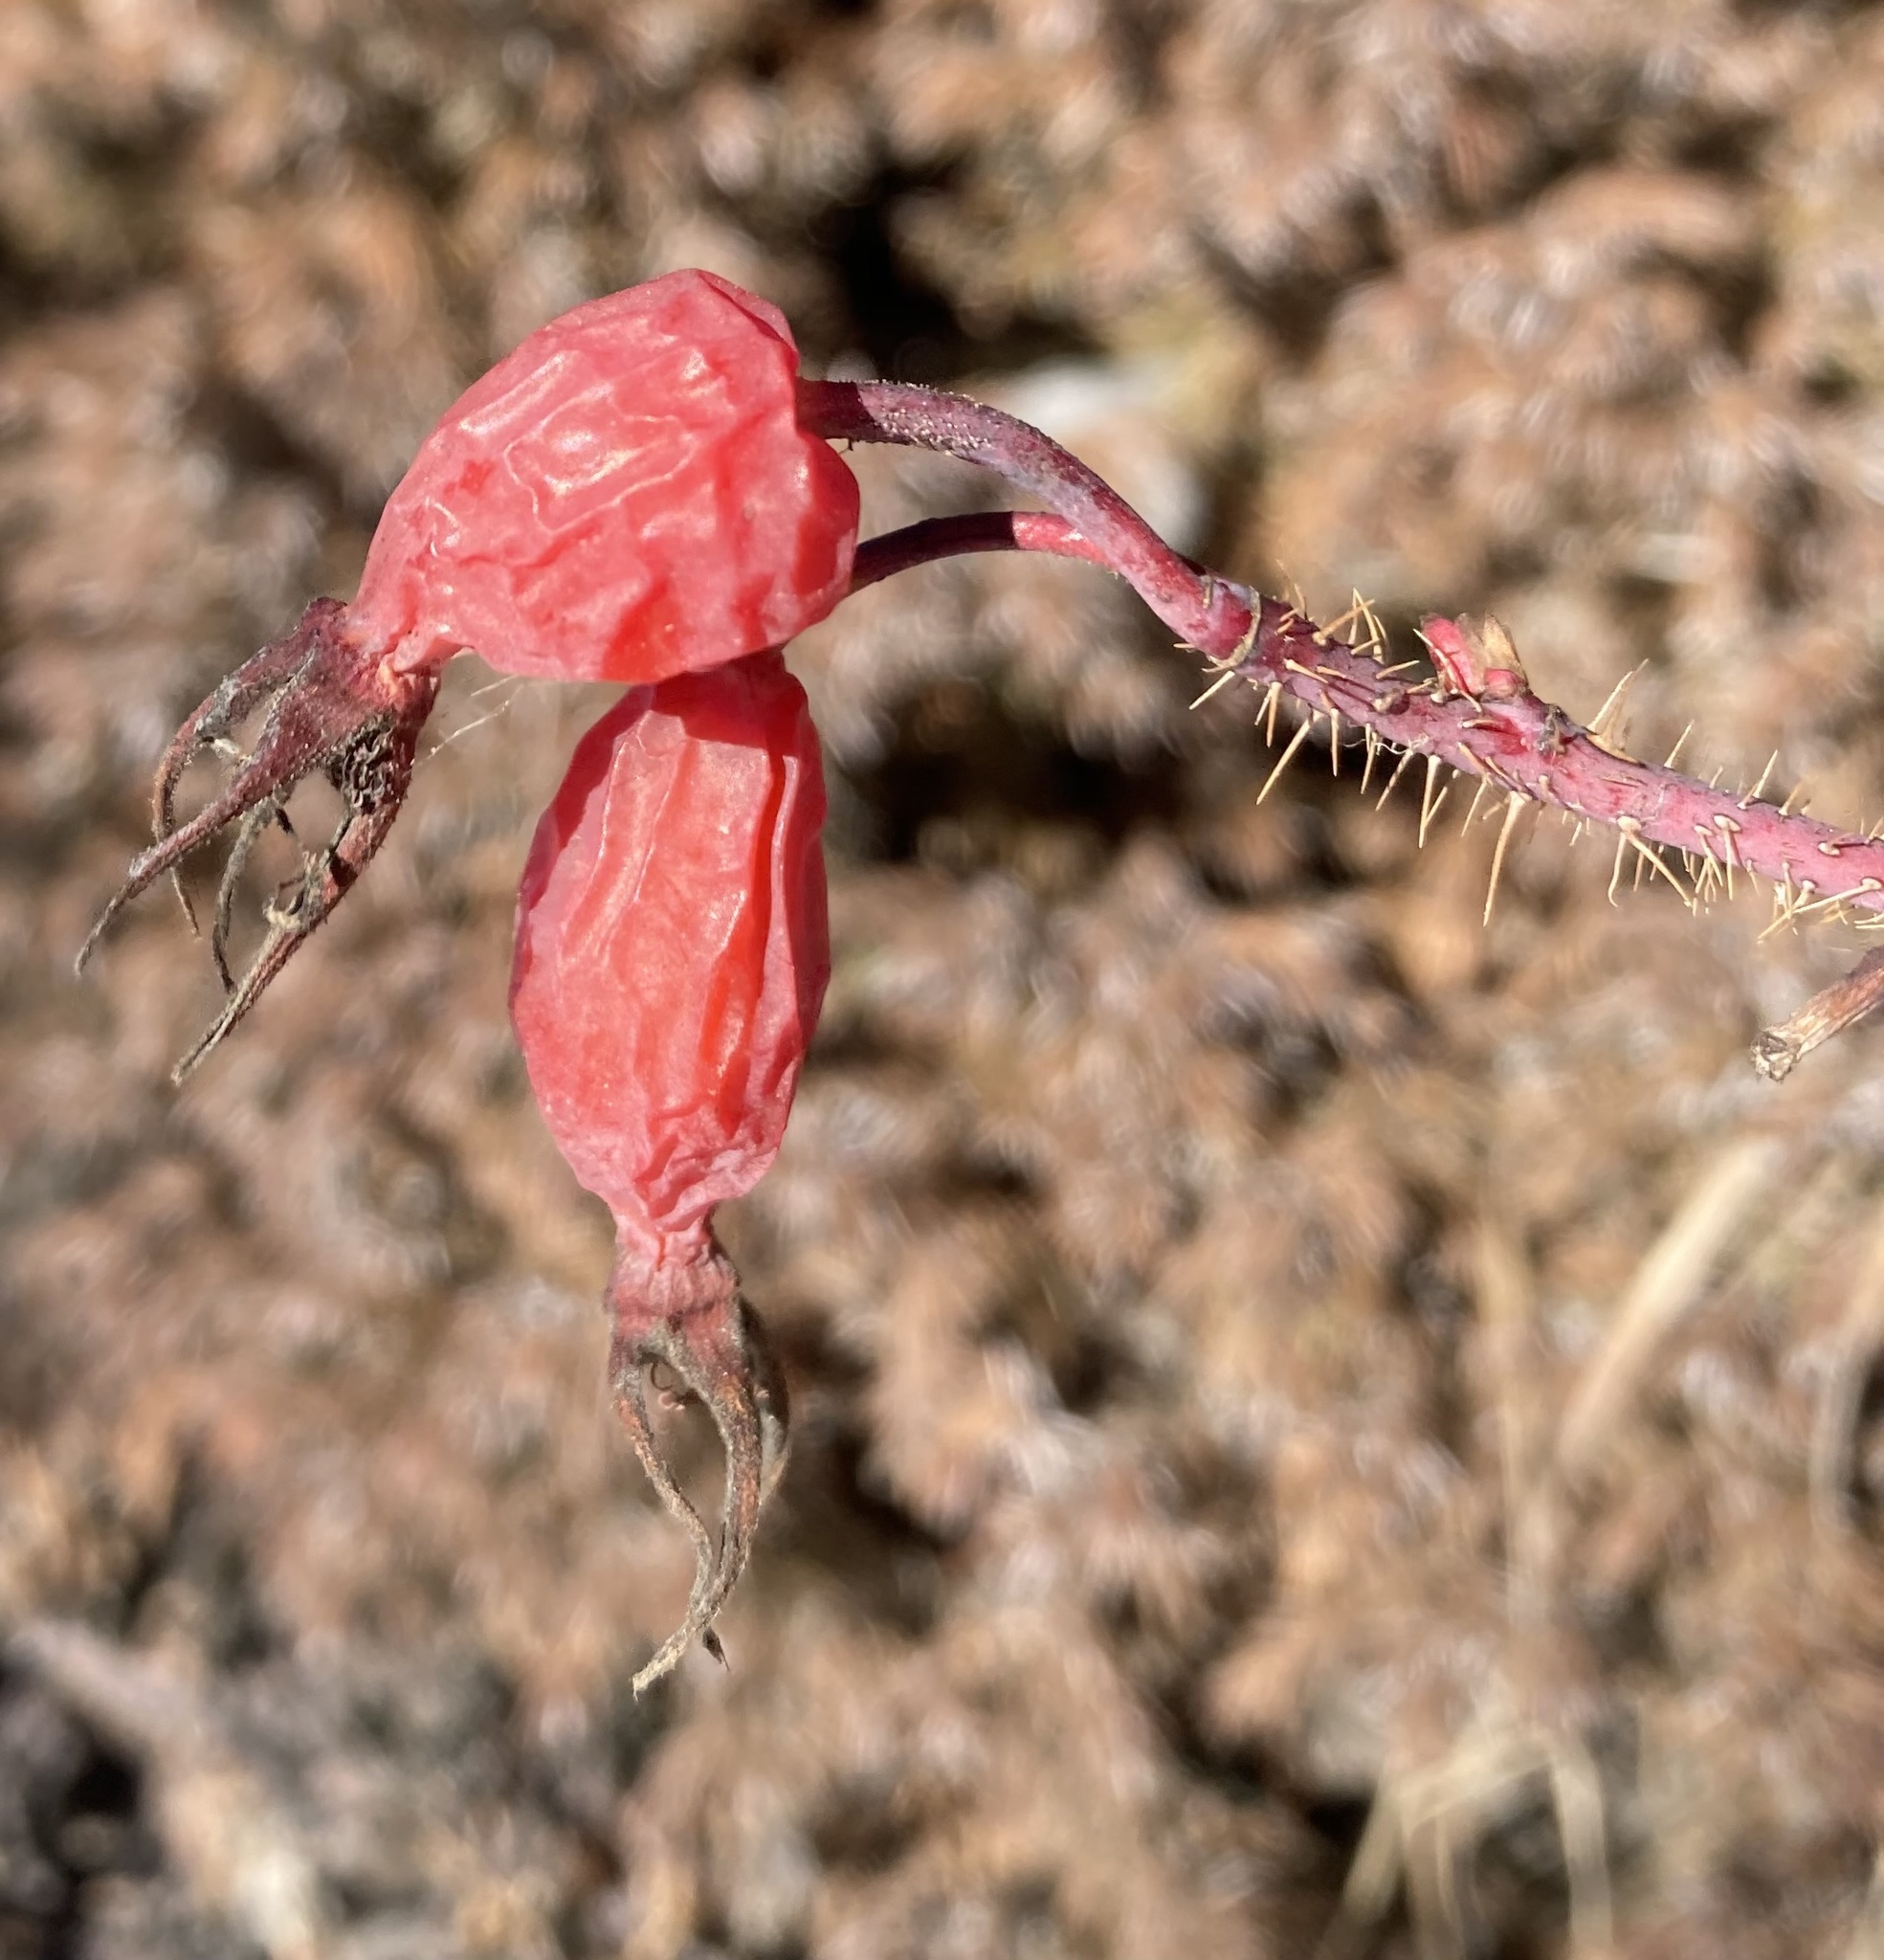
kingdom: Plantae
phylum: Tracheophyta
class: Magnoliopsida
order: Rosales
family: Rosaceae
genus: Rosa
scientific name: Rosa acicularis
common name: Prickly rose
